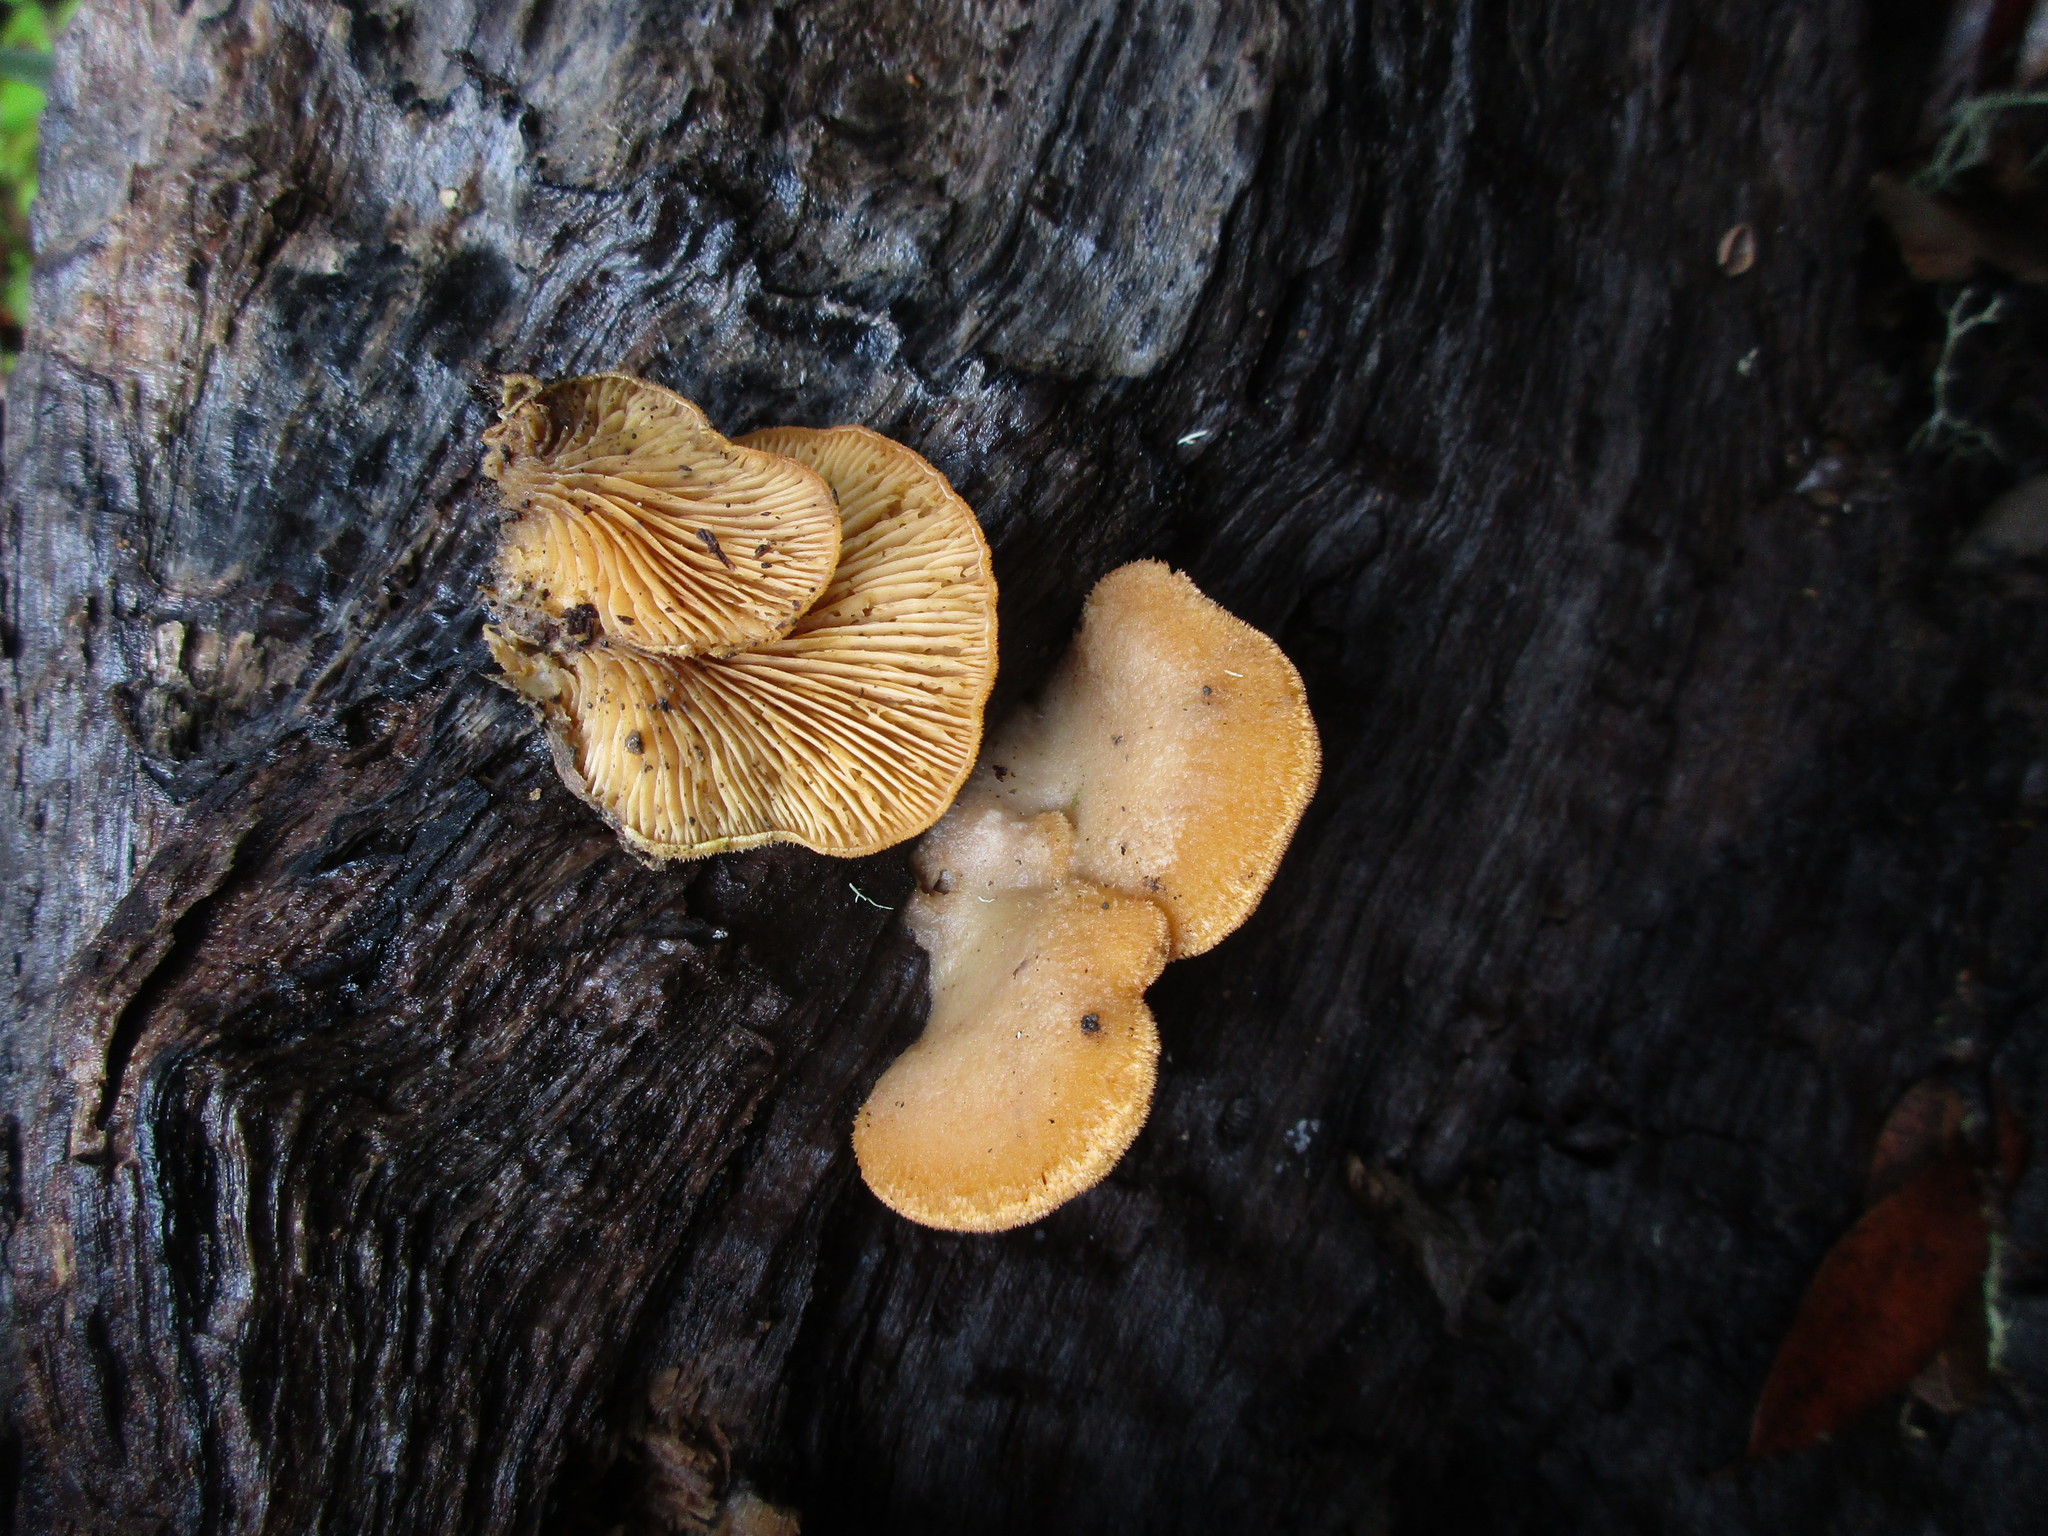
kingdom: Fungi
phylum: Basidiomycota
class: Agaricomycetes
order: Agaricales
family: Phyllotopsidaceae
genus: Phyllotopsis
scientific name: Phyllotopsis nidulans
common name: Orange mock oyster
